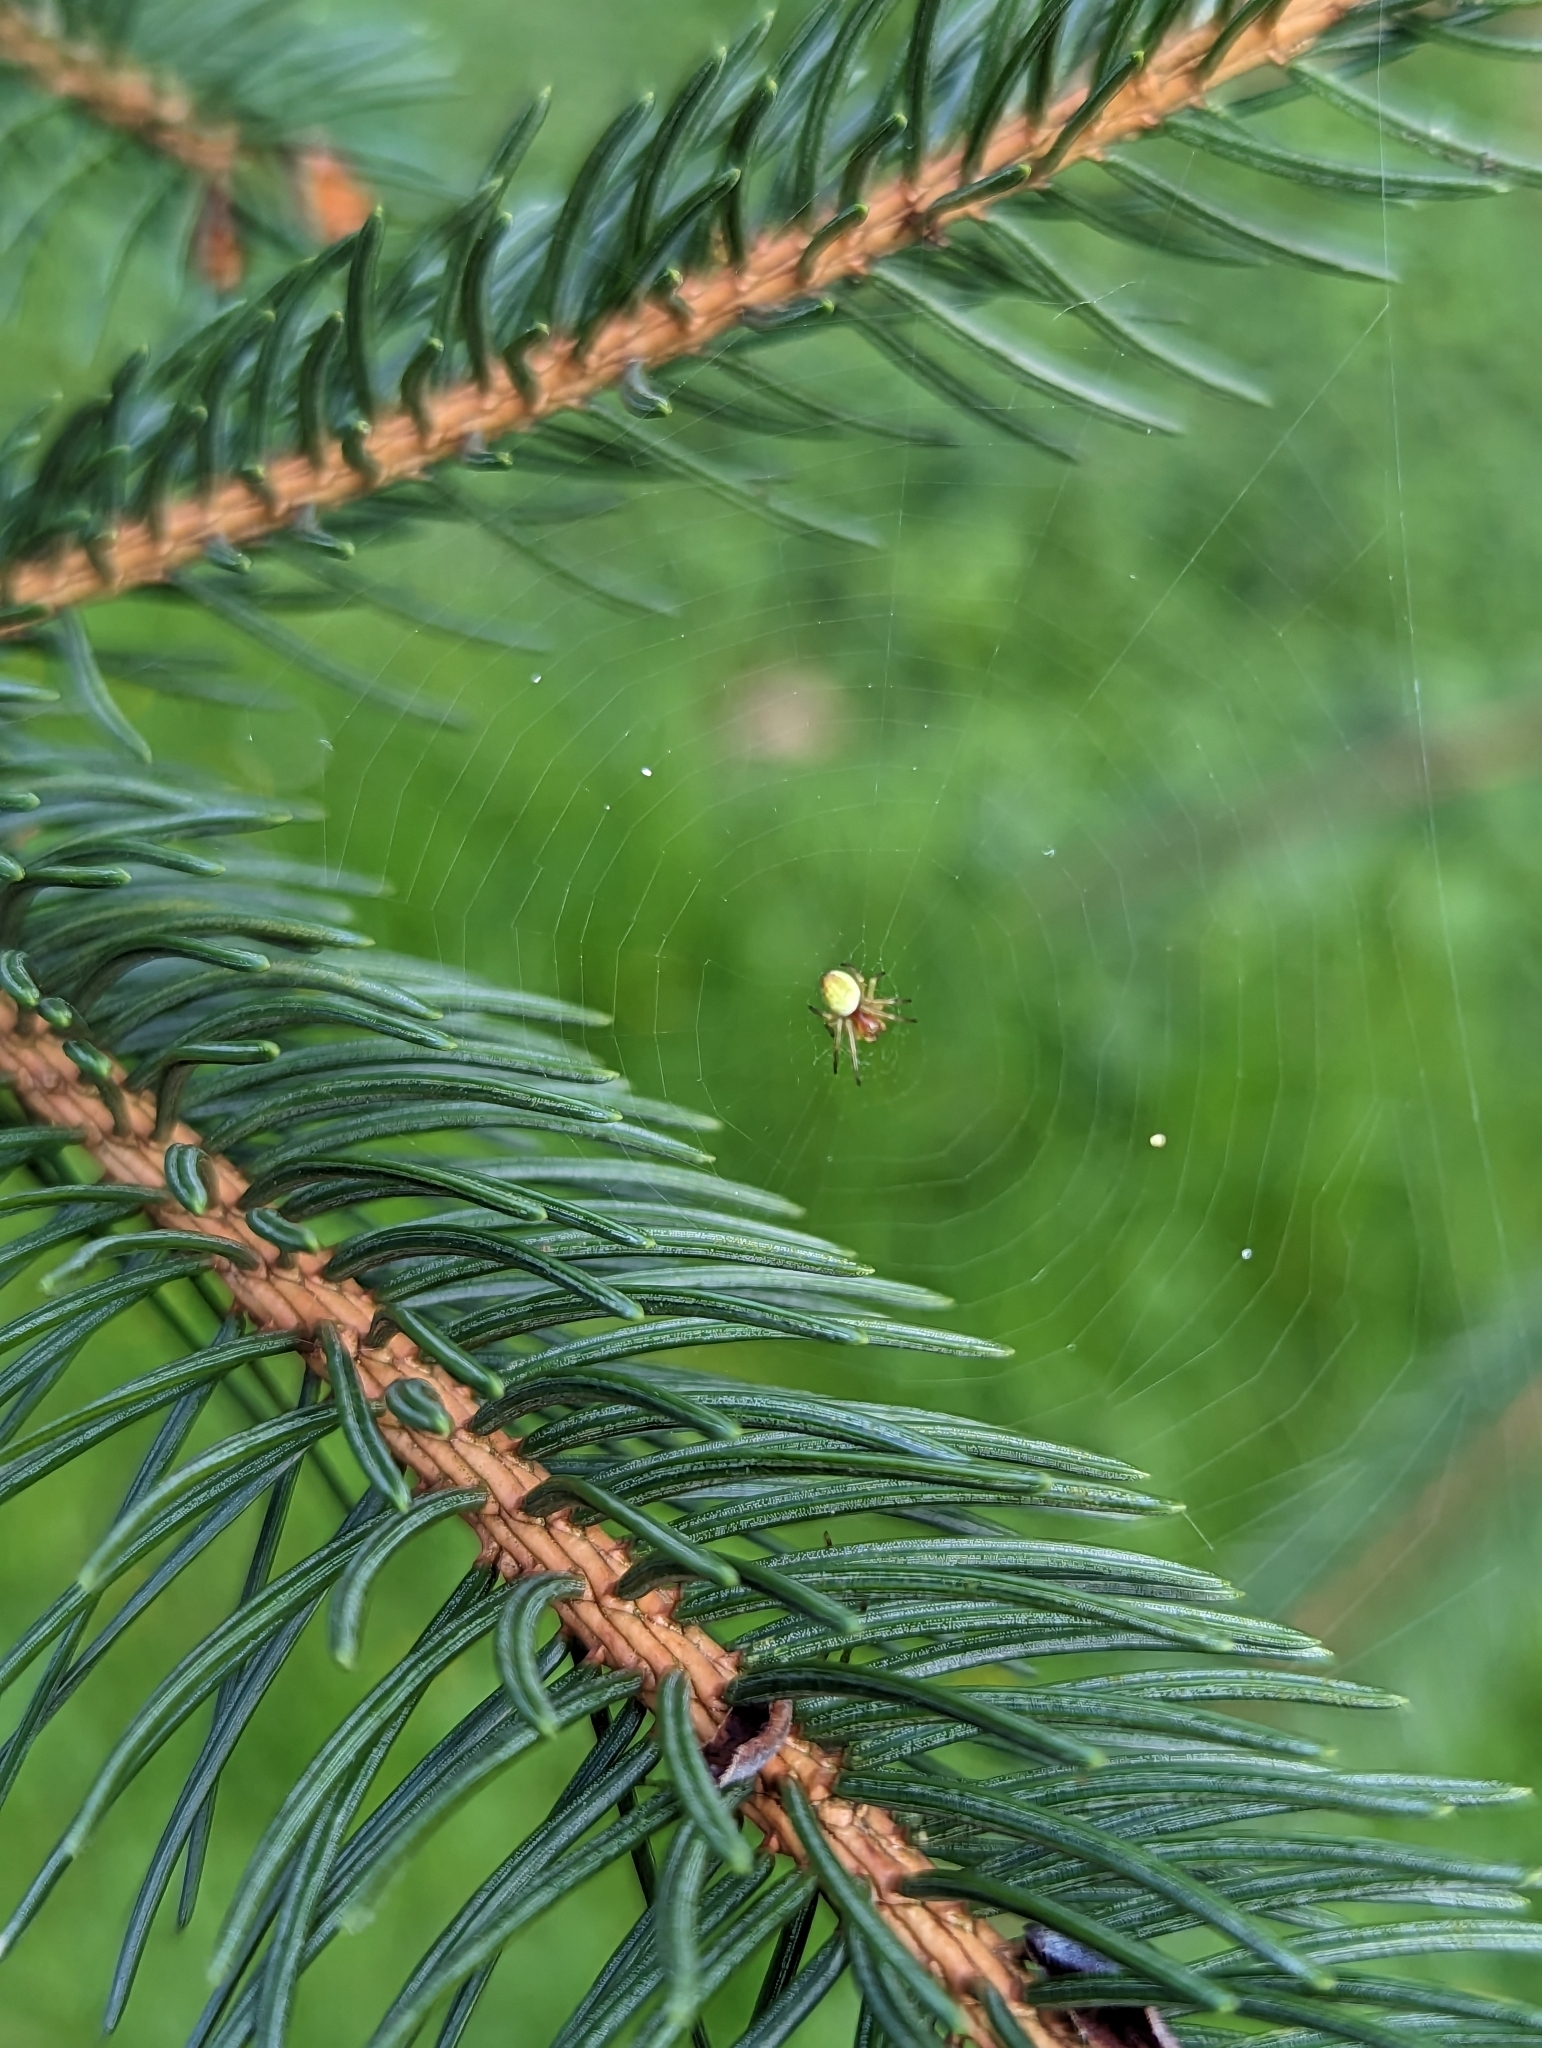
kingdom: Animalia
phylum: Arthropoda
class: Arachnida
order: Araneae
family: Araneidae
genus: Araniella
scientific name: Araniella
